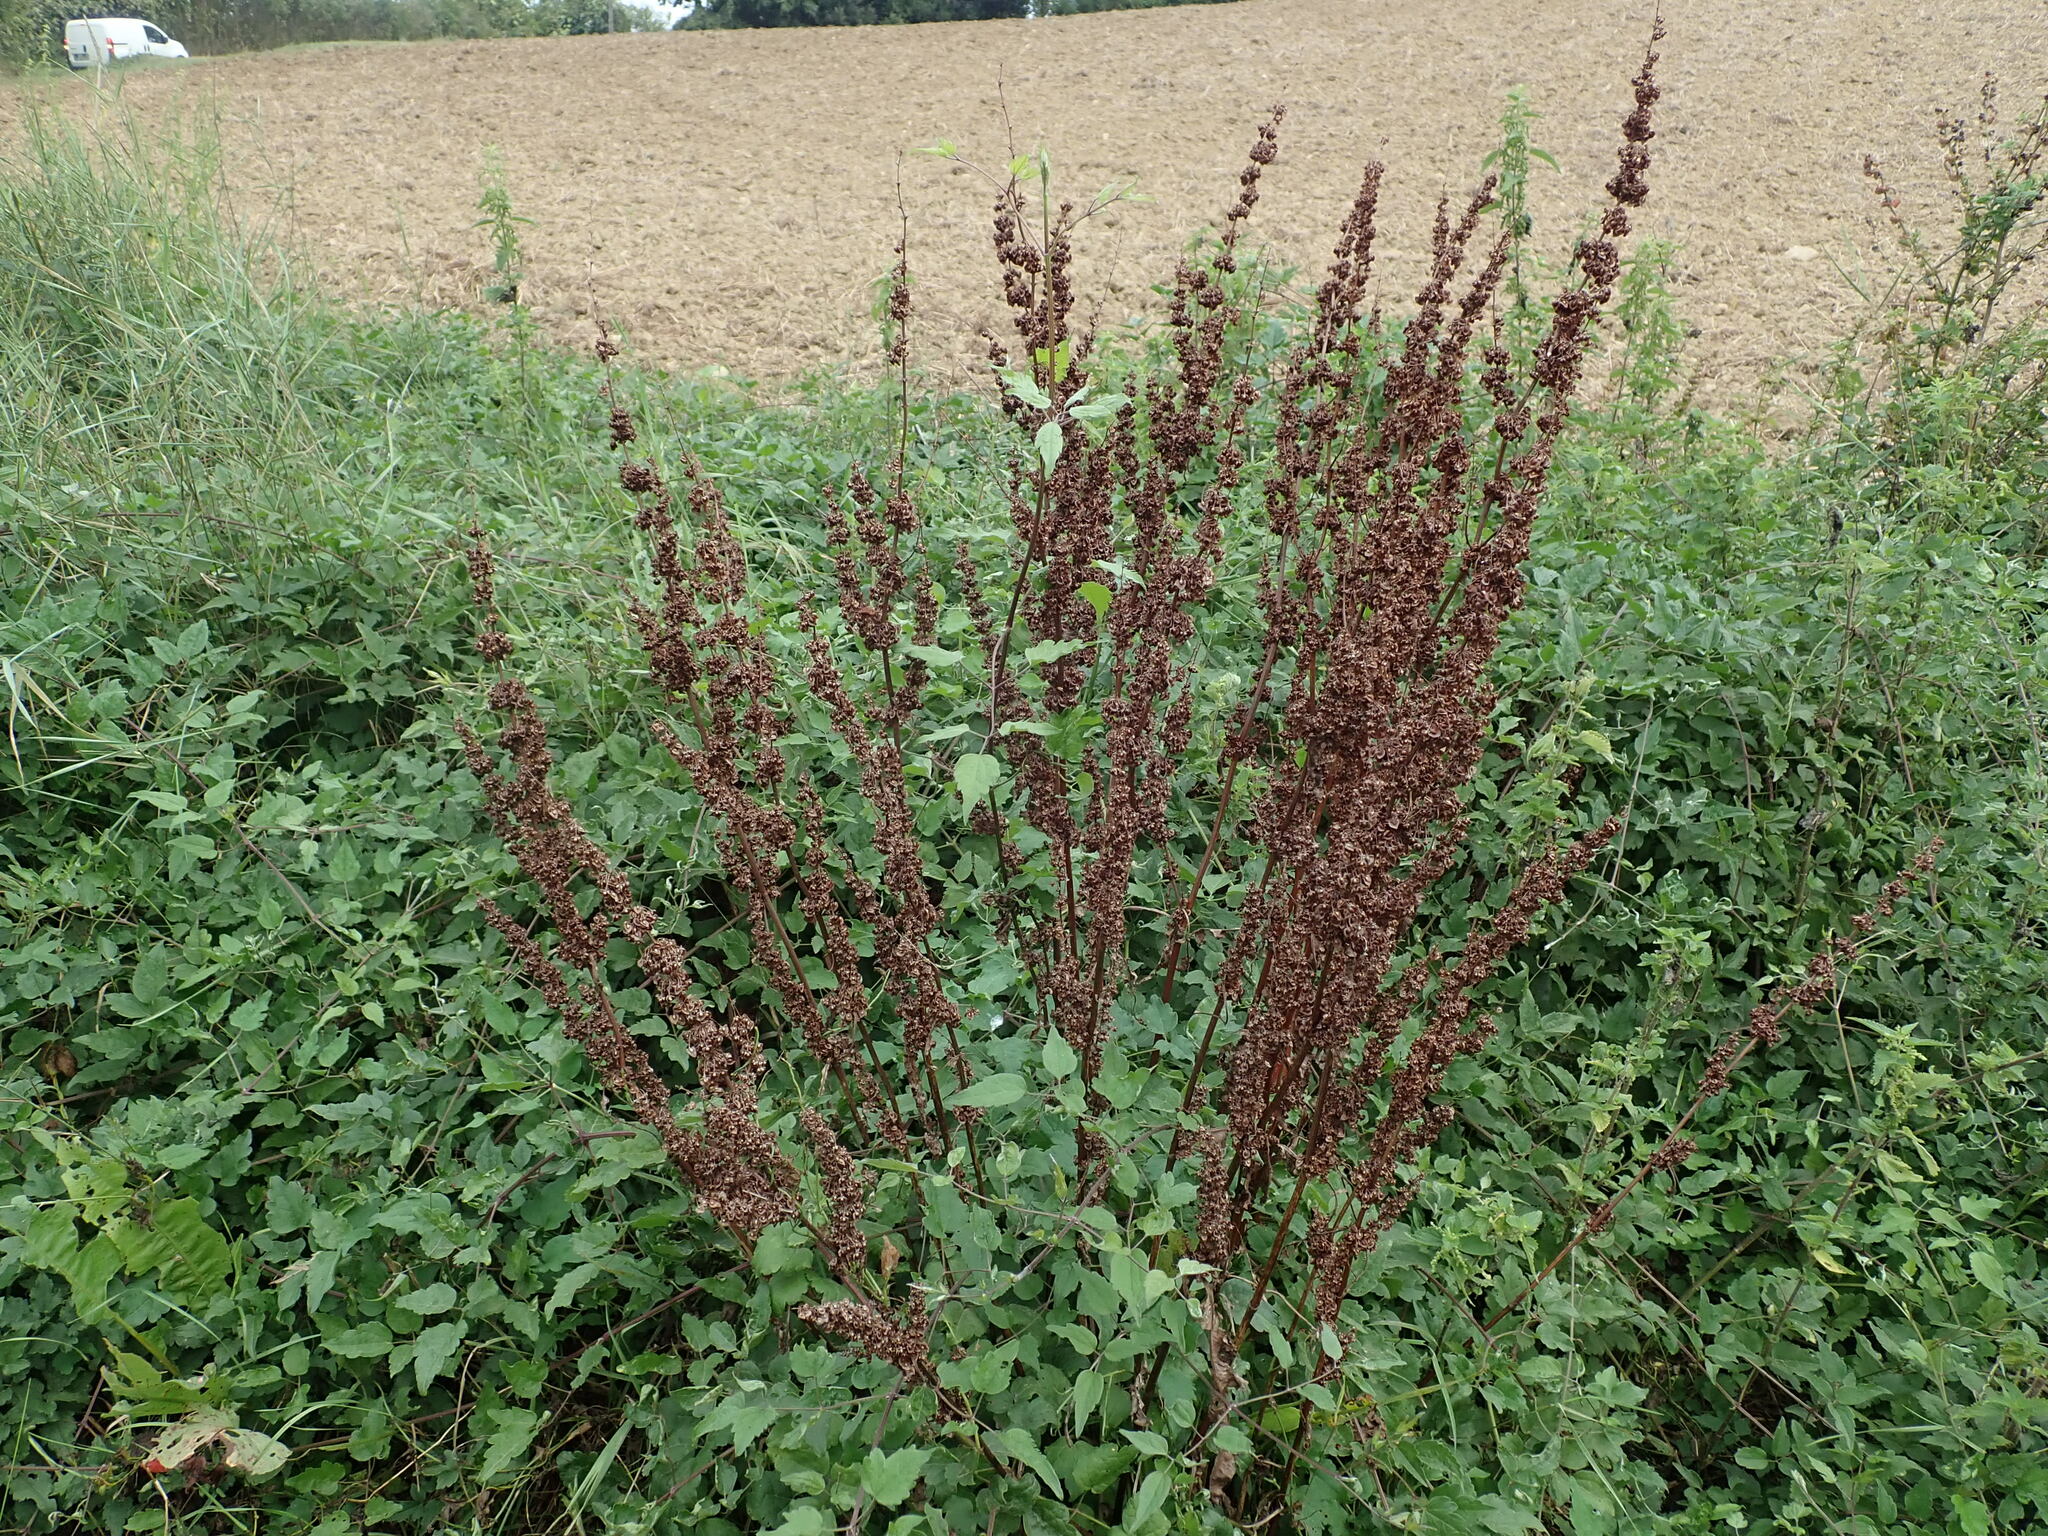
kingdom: Plantae
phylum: Tracheophyta
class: Magnoliopsida
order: Caryophyllales
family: Polygonaceae
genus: Rumex
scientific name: Rumex crispus
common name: Curled dock
